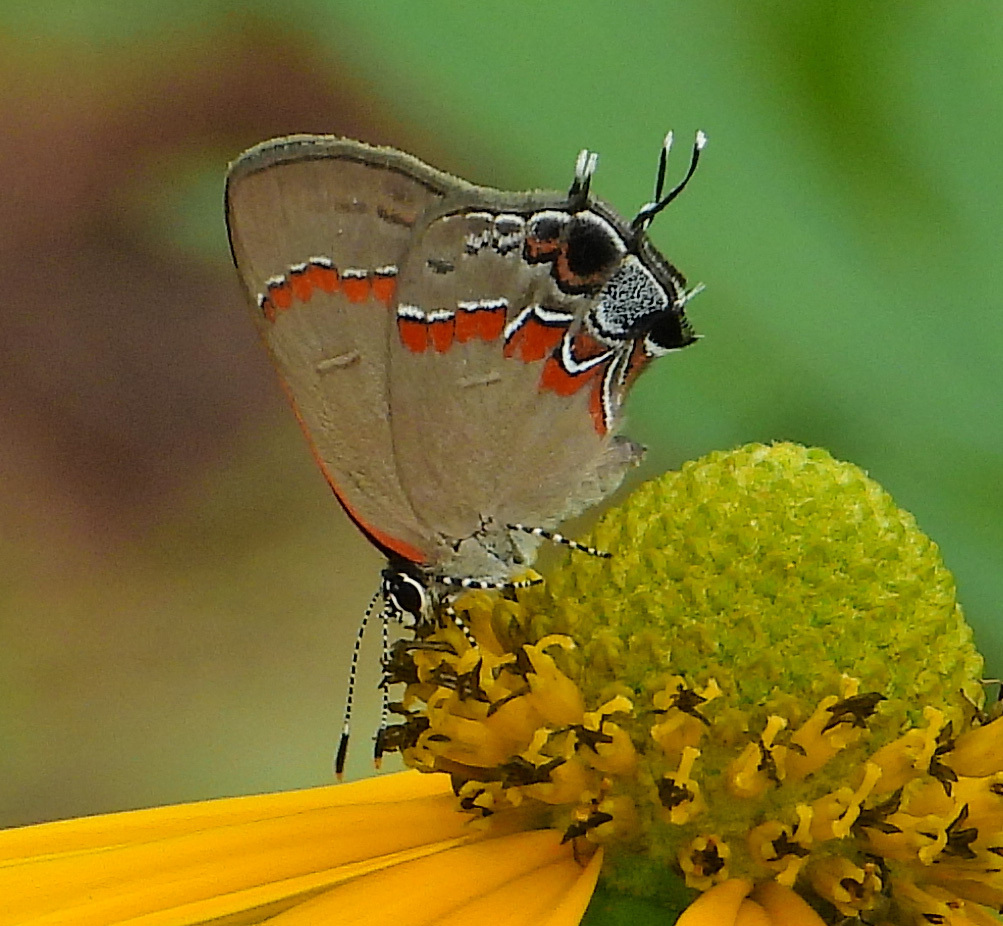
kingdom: Animalia
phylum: Arthropoda
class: Insecta
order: Lepidoptera
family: Lycaenidae
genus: Calycopis
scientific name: Calycopis cecrops
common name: Red-banded hairstreak
